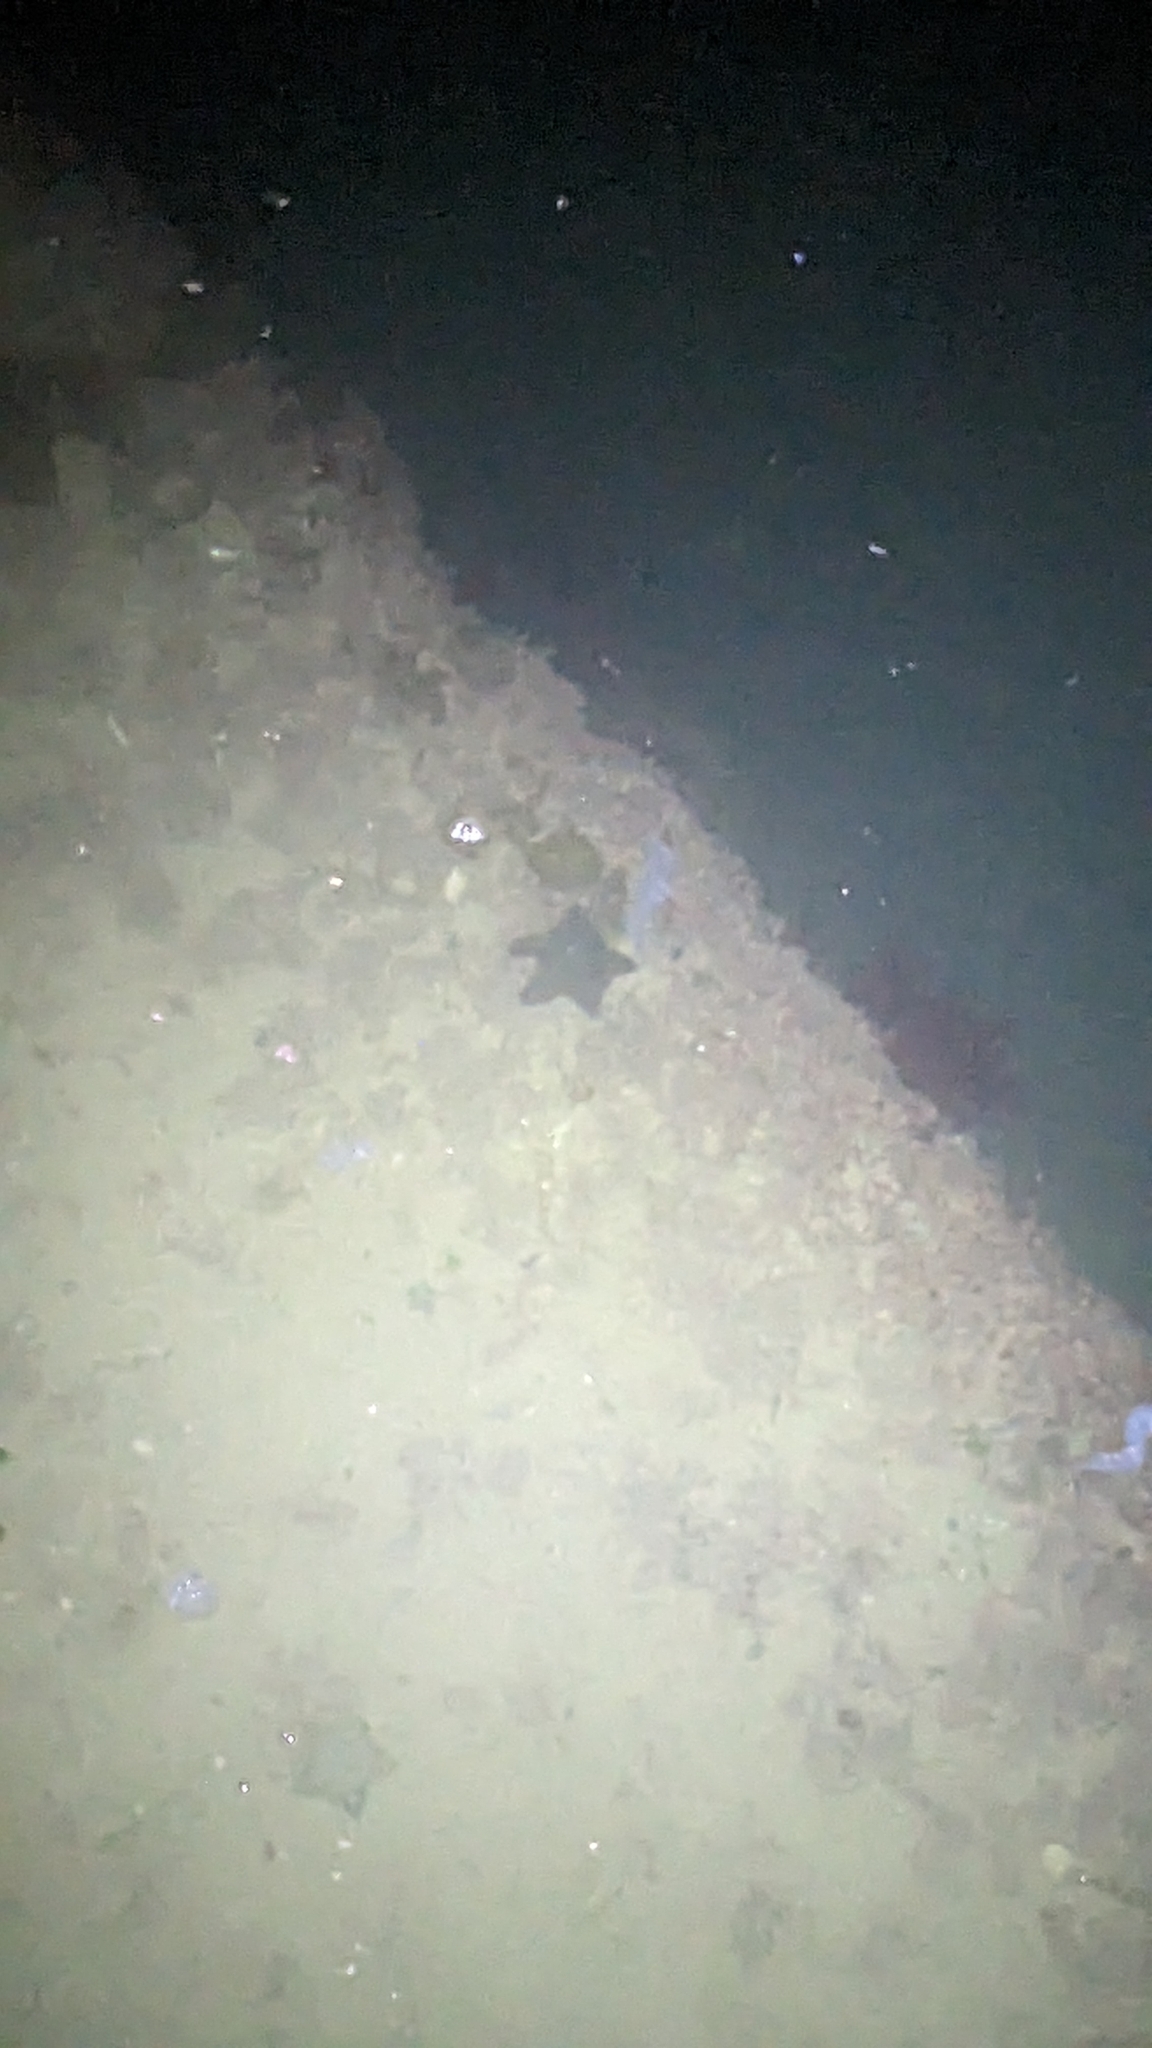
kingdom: Animalia
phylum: Echinodermata
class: Asteroidea
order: Valvatida
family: Asterinidae
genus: Patiriella
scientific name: Patiriella regularis
